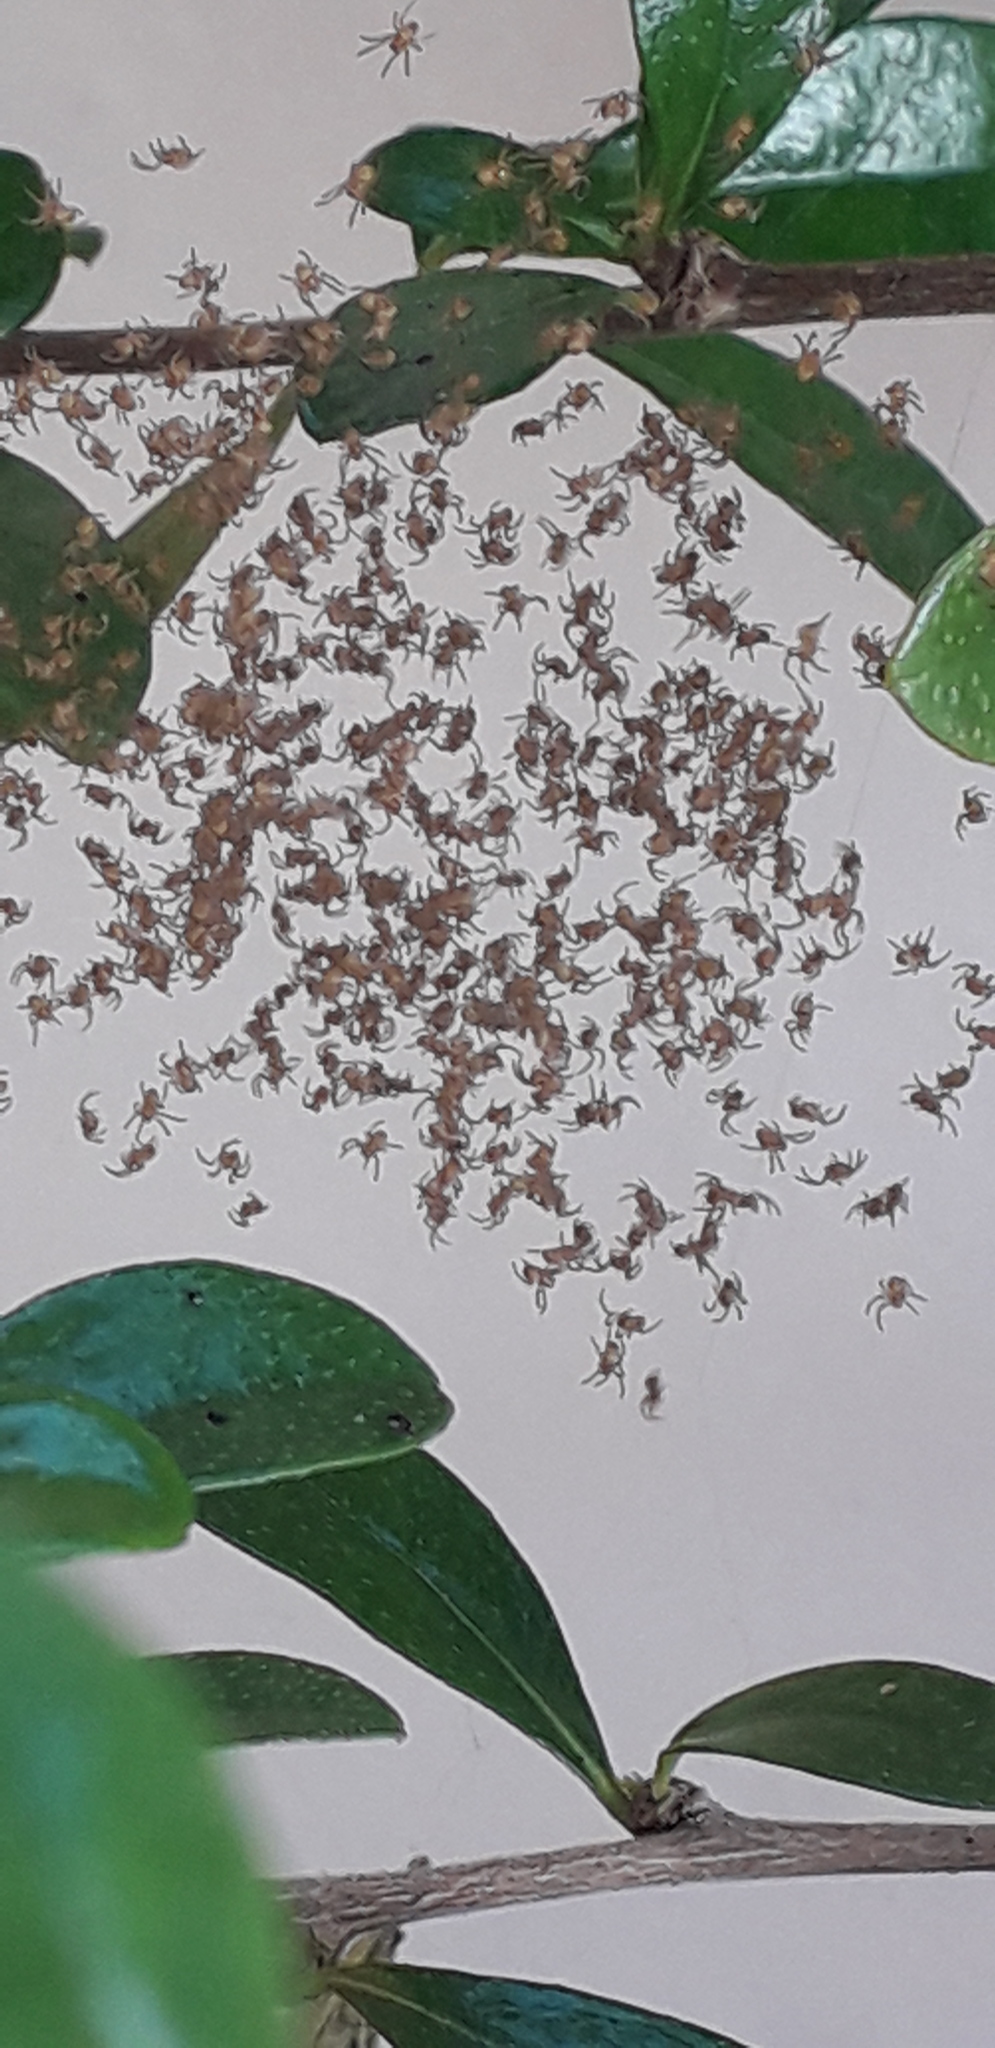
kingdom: Animalia
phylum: Arthropoda
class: Arachnida
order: Araneae
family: Araneidae
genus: Argiope
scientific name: Argiope argentata
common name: Orb weavers
